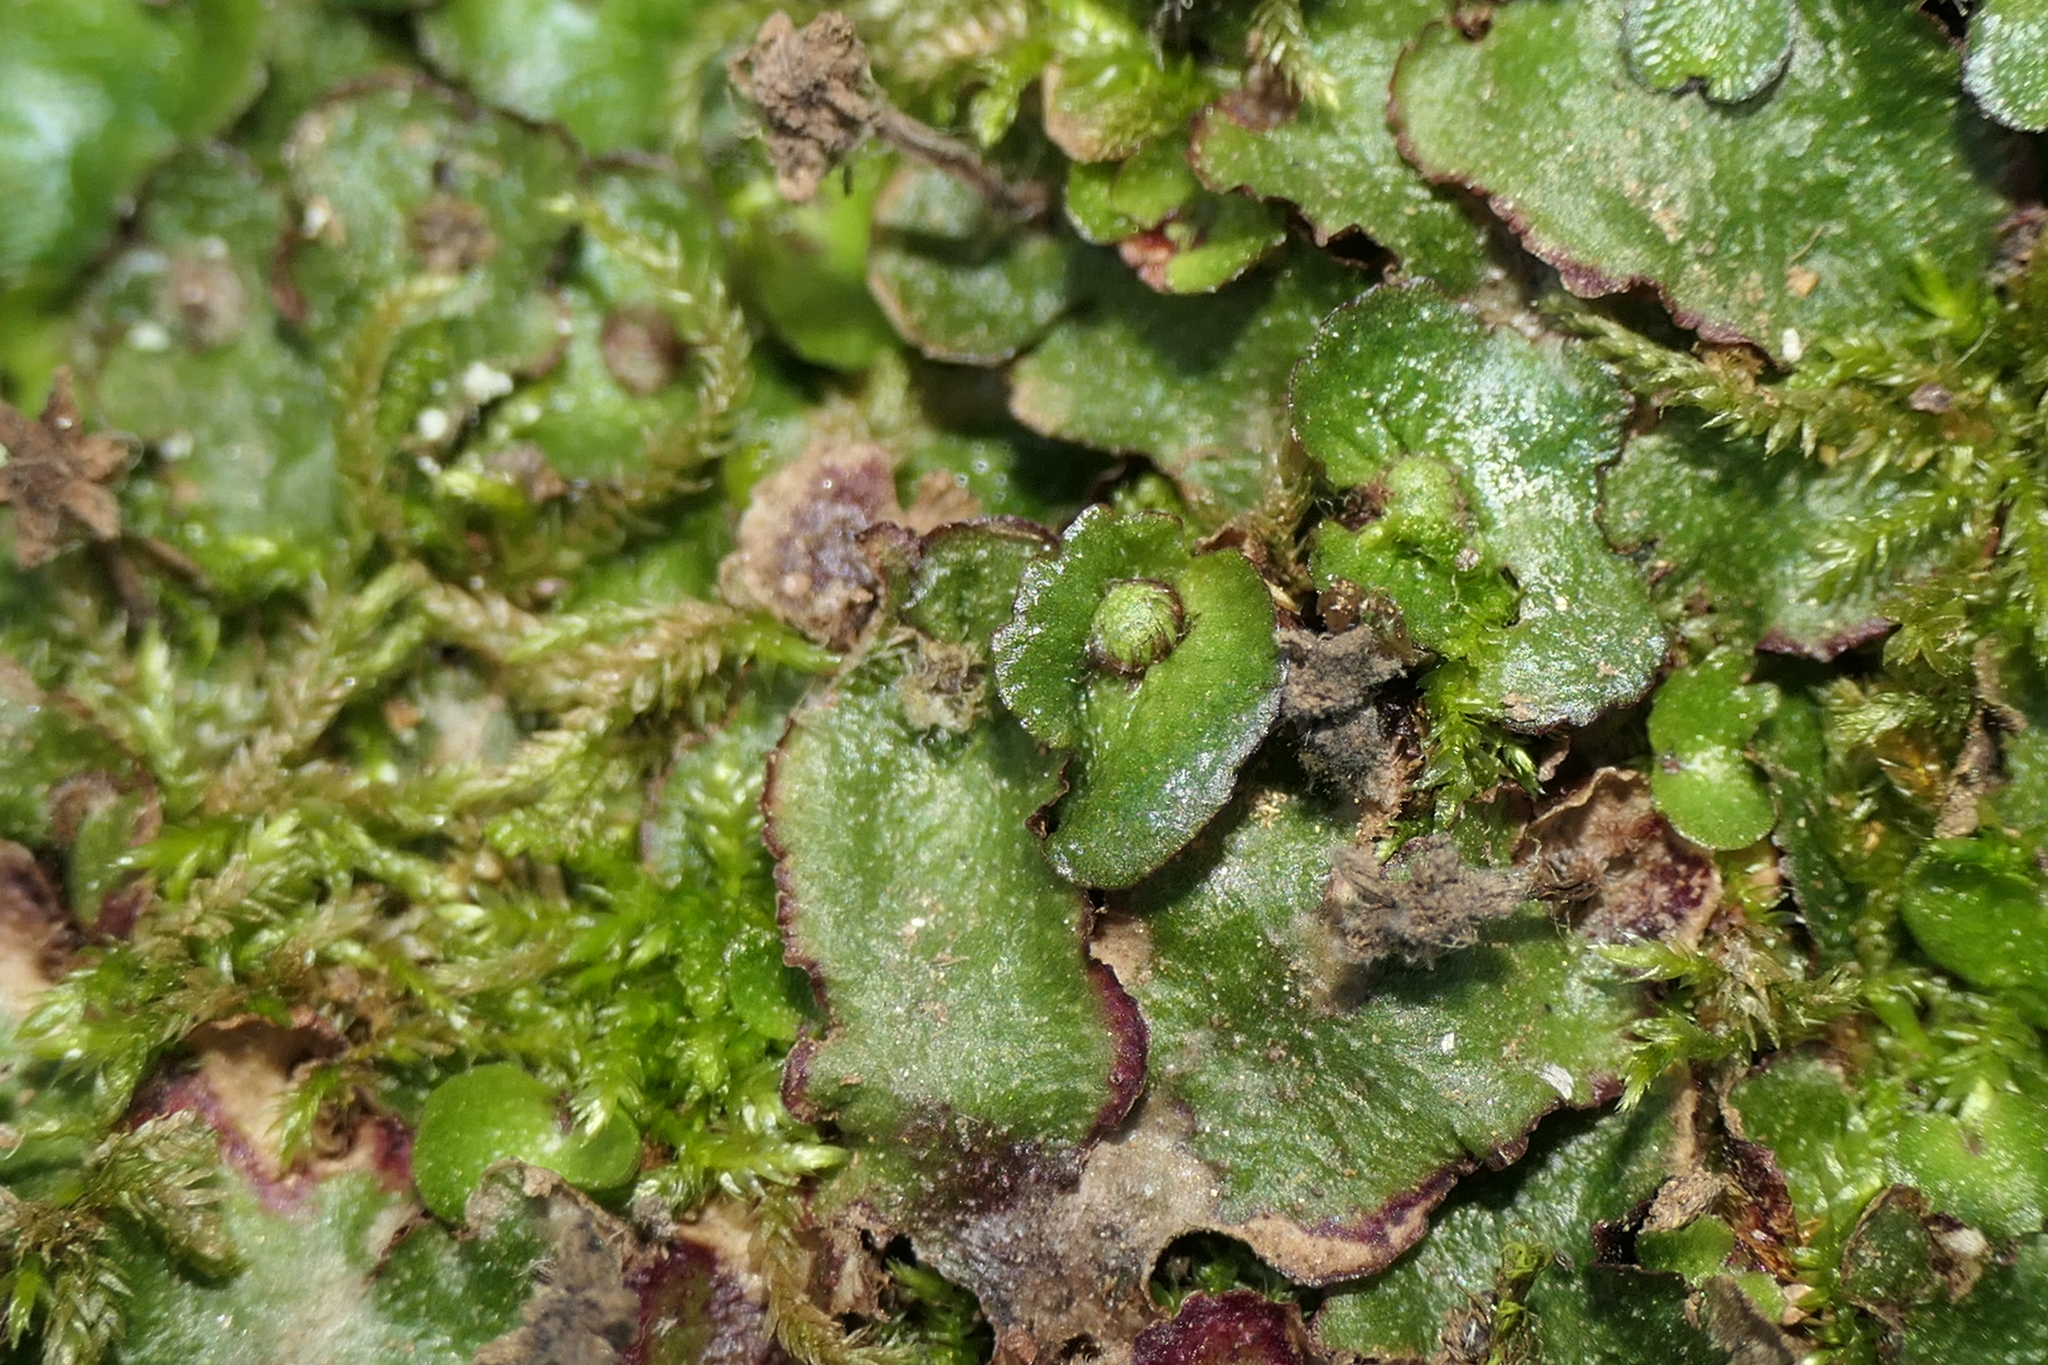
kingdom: Plantae
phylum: Marchantiophyta
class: Marchantiopsida
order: Marchantiales
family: Aytoniaceae
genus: Reboulia
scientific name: Reboulia hemisphaerica
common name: Purple-margined liverwort
